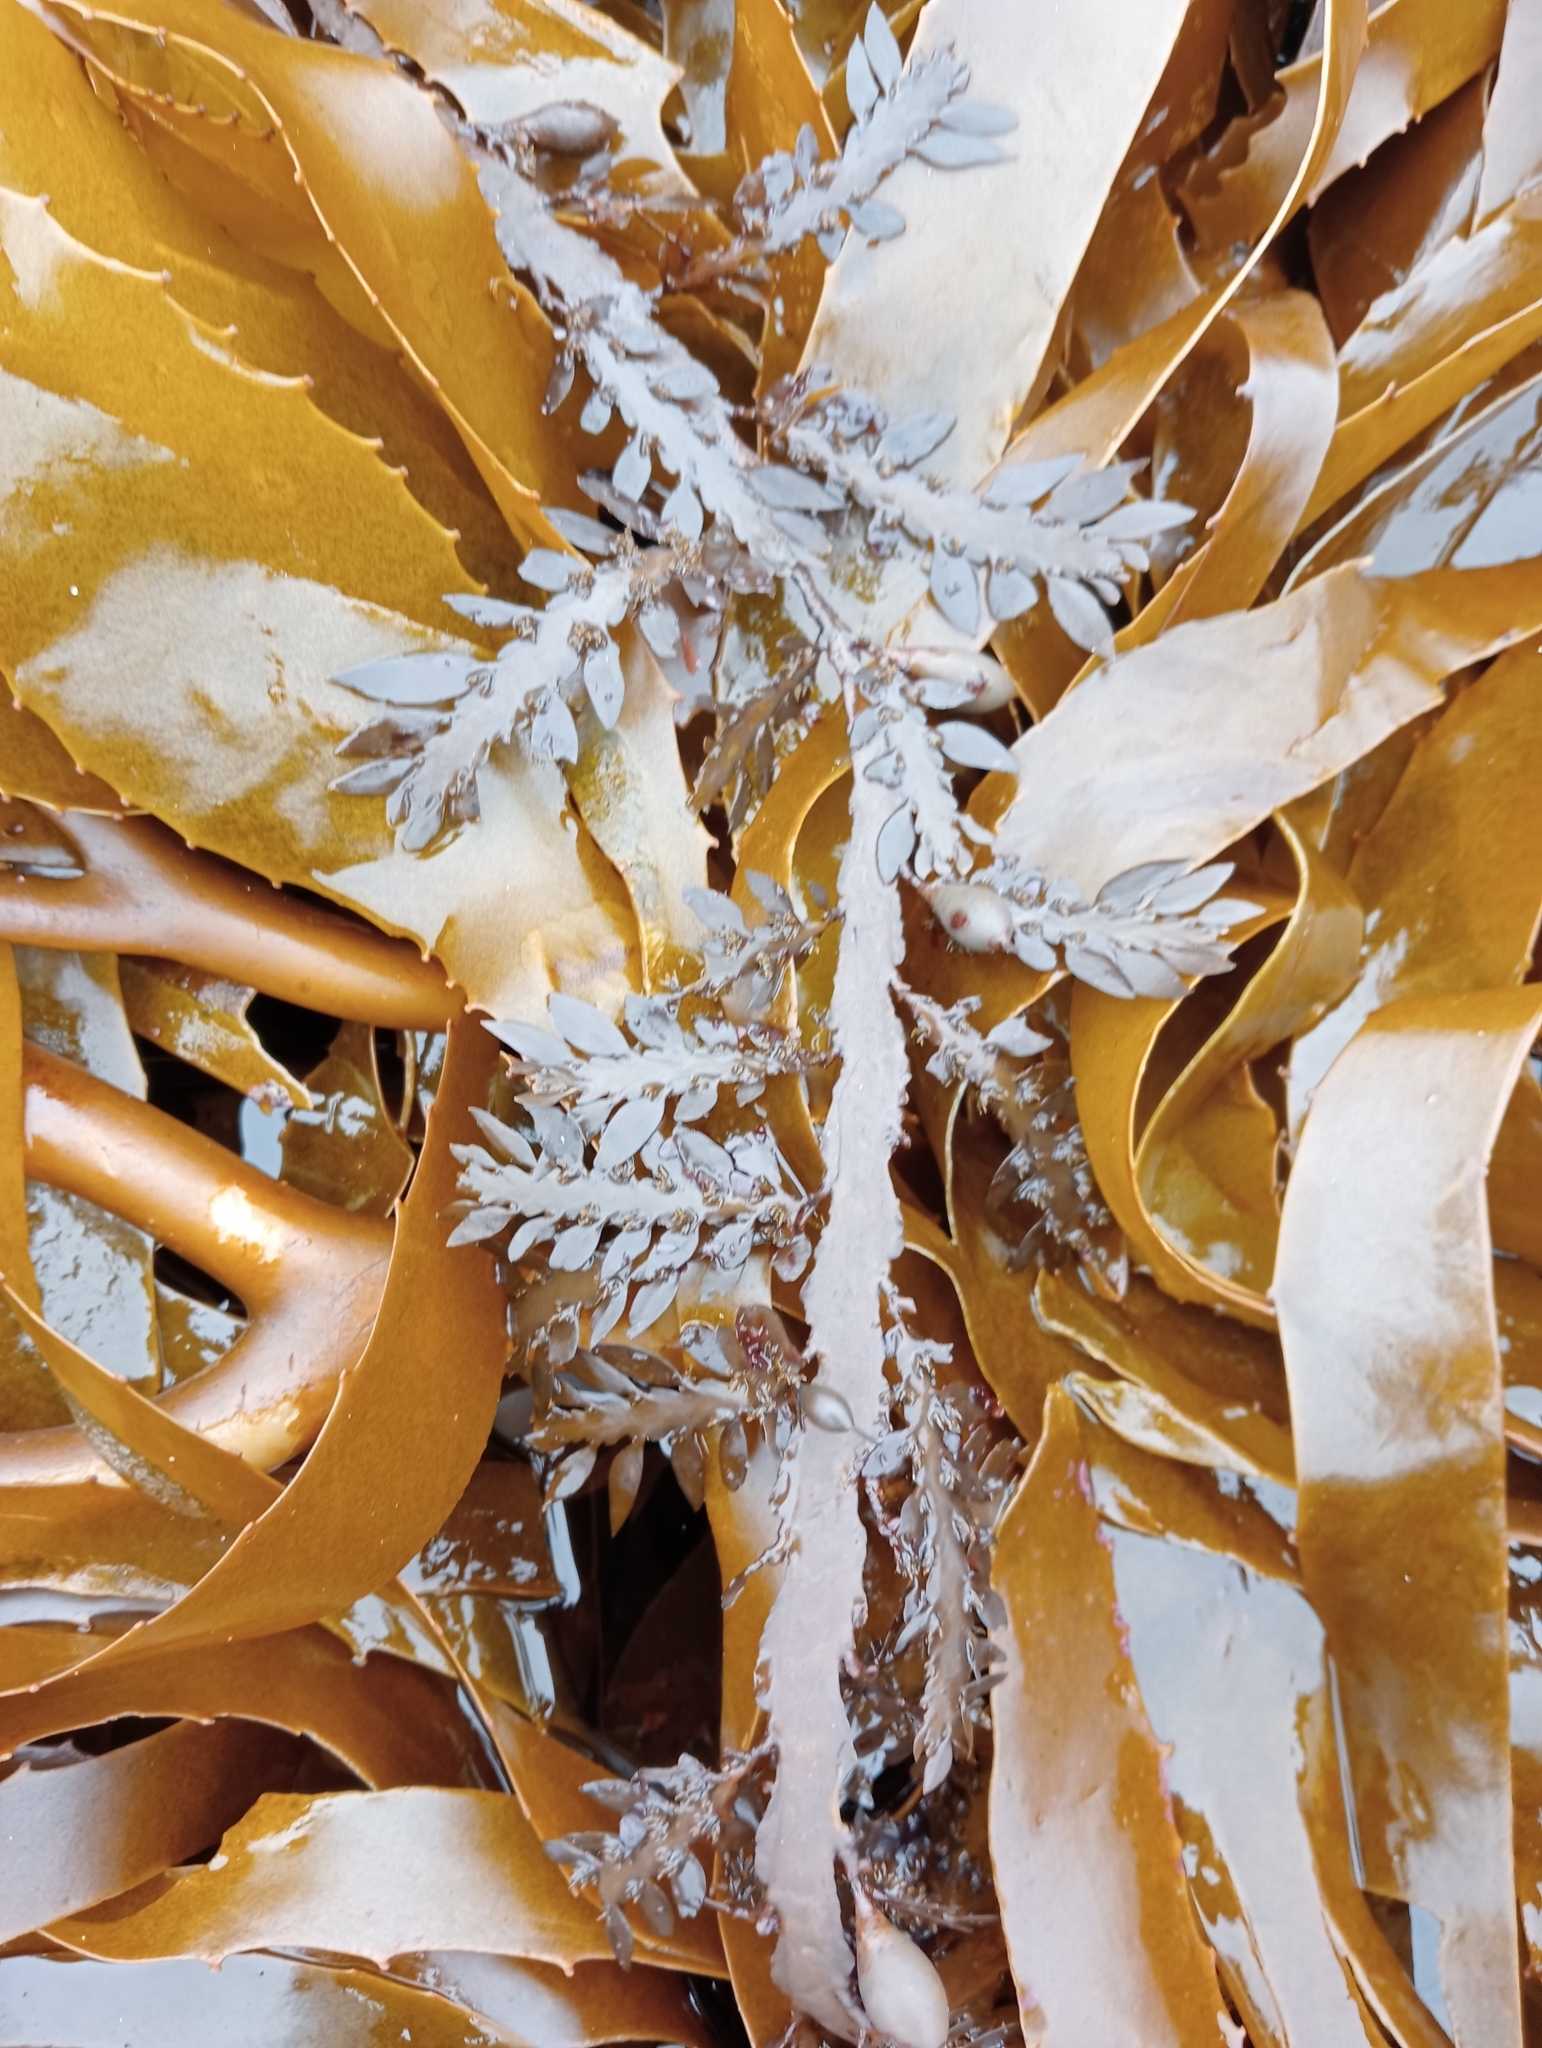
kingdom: Chromista
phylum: Ochrophyta
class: Phaeophyceae
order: Fucales
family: Sargassaceae
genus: Carpophyllum
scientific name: Carpophyllum maschalocarpum
